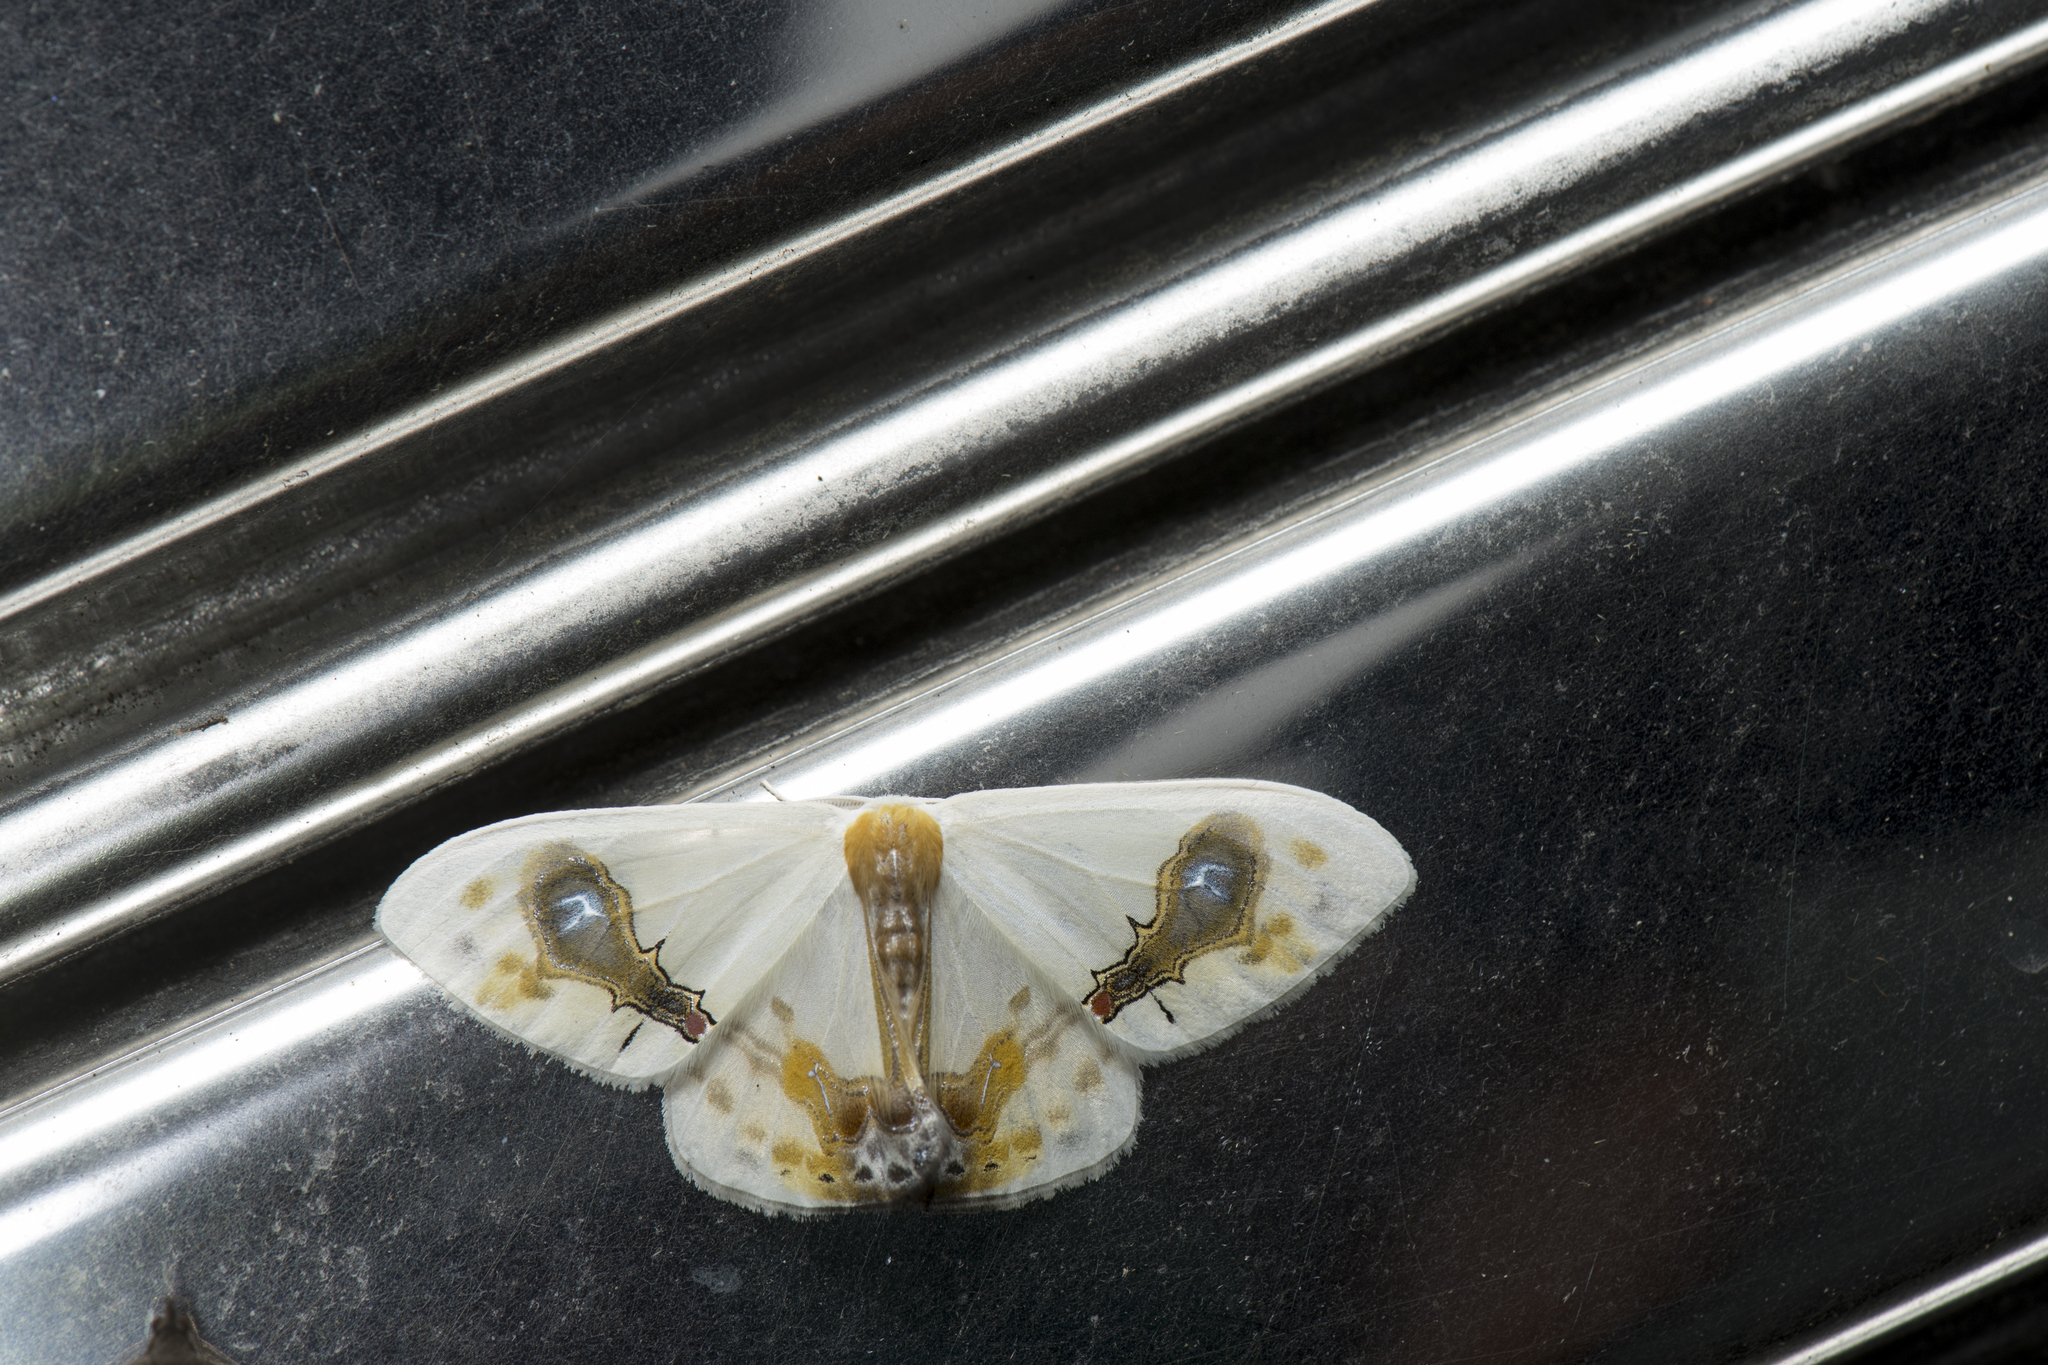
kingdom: Animalia
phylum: Arthropoda
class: Insecta
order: Lepidoptera
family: Drepanidae
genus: Macrocilix
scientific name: Macrocilix maia
